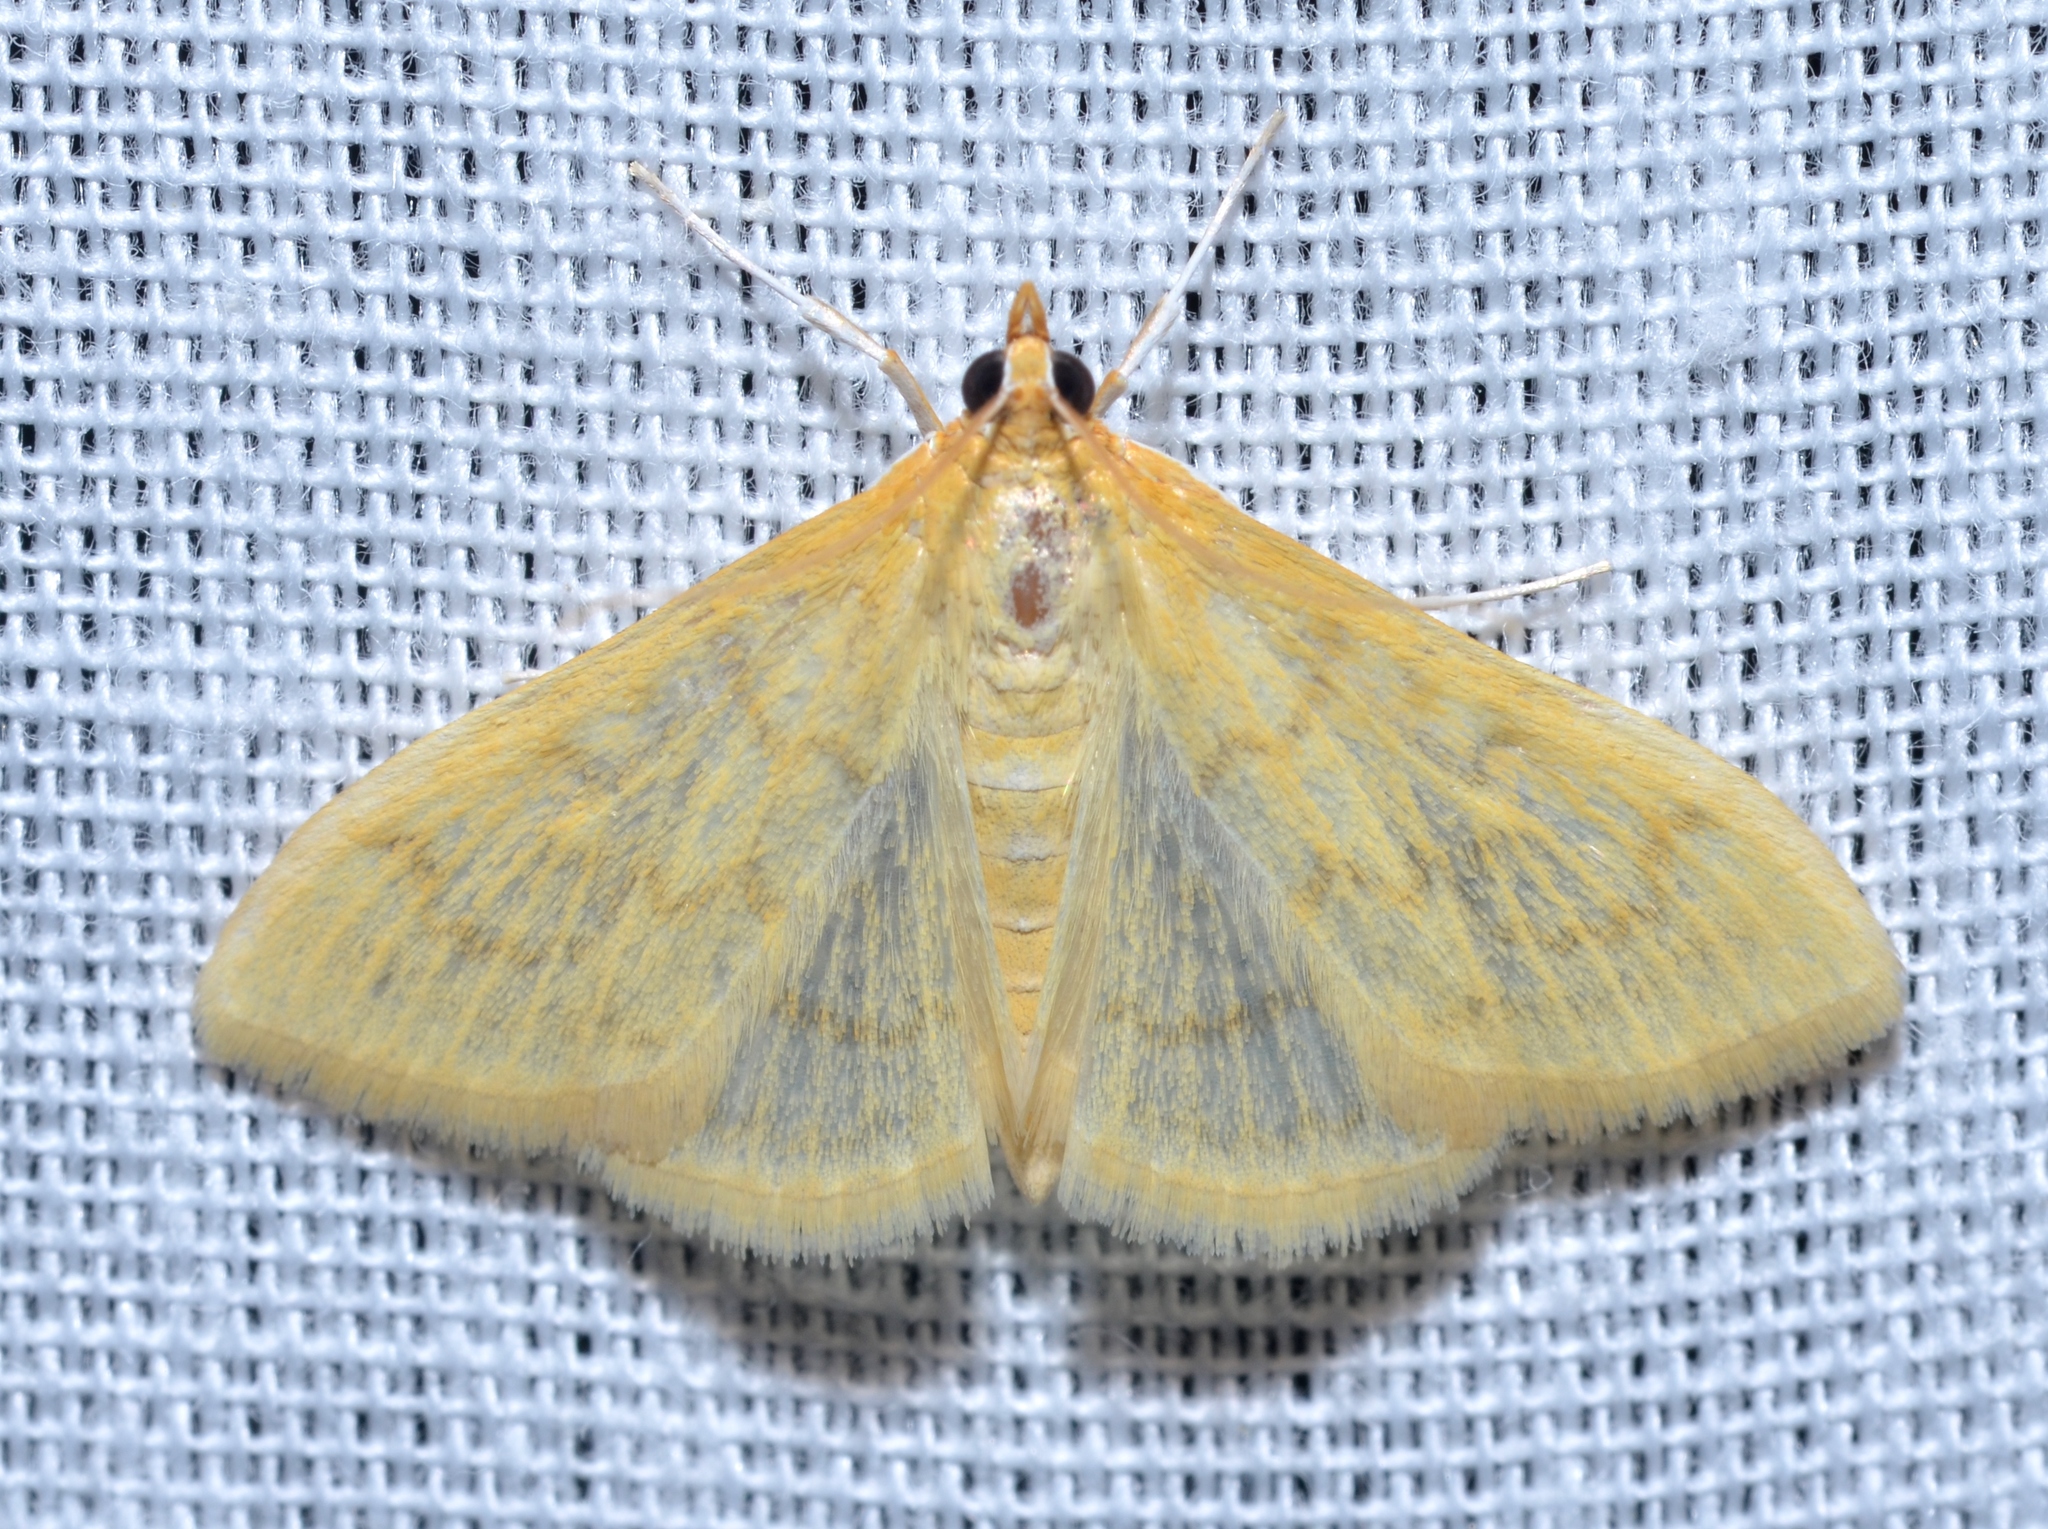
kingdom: Animalia
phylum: Arthropoda
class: Insecta
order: Lepidoptera
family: Crambidae
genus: Hahncappsia
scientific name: Hahncappsia
